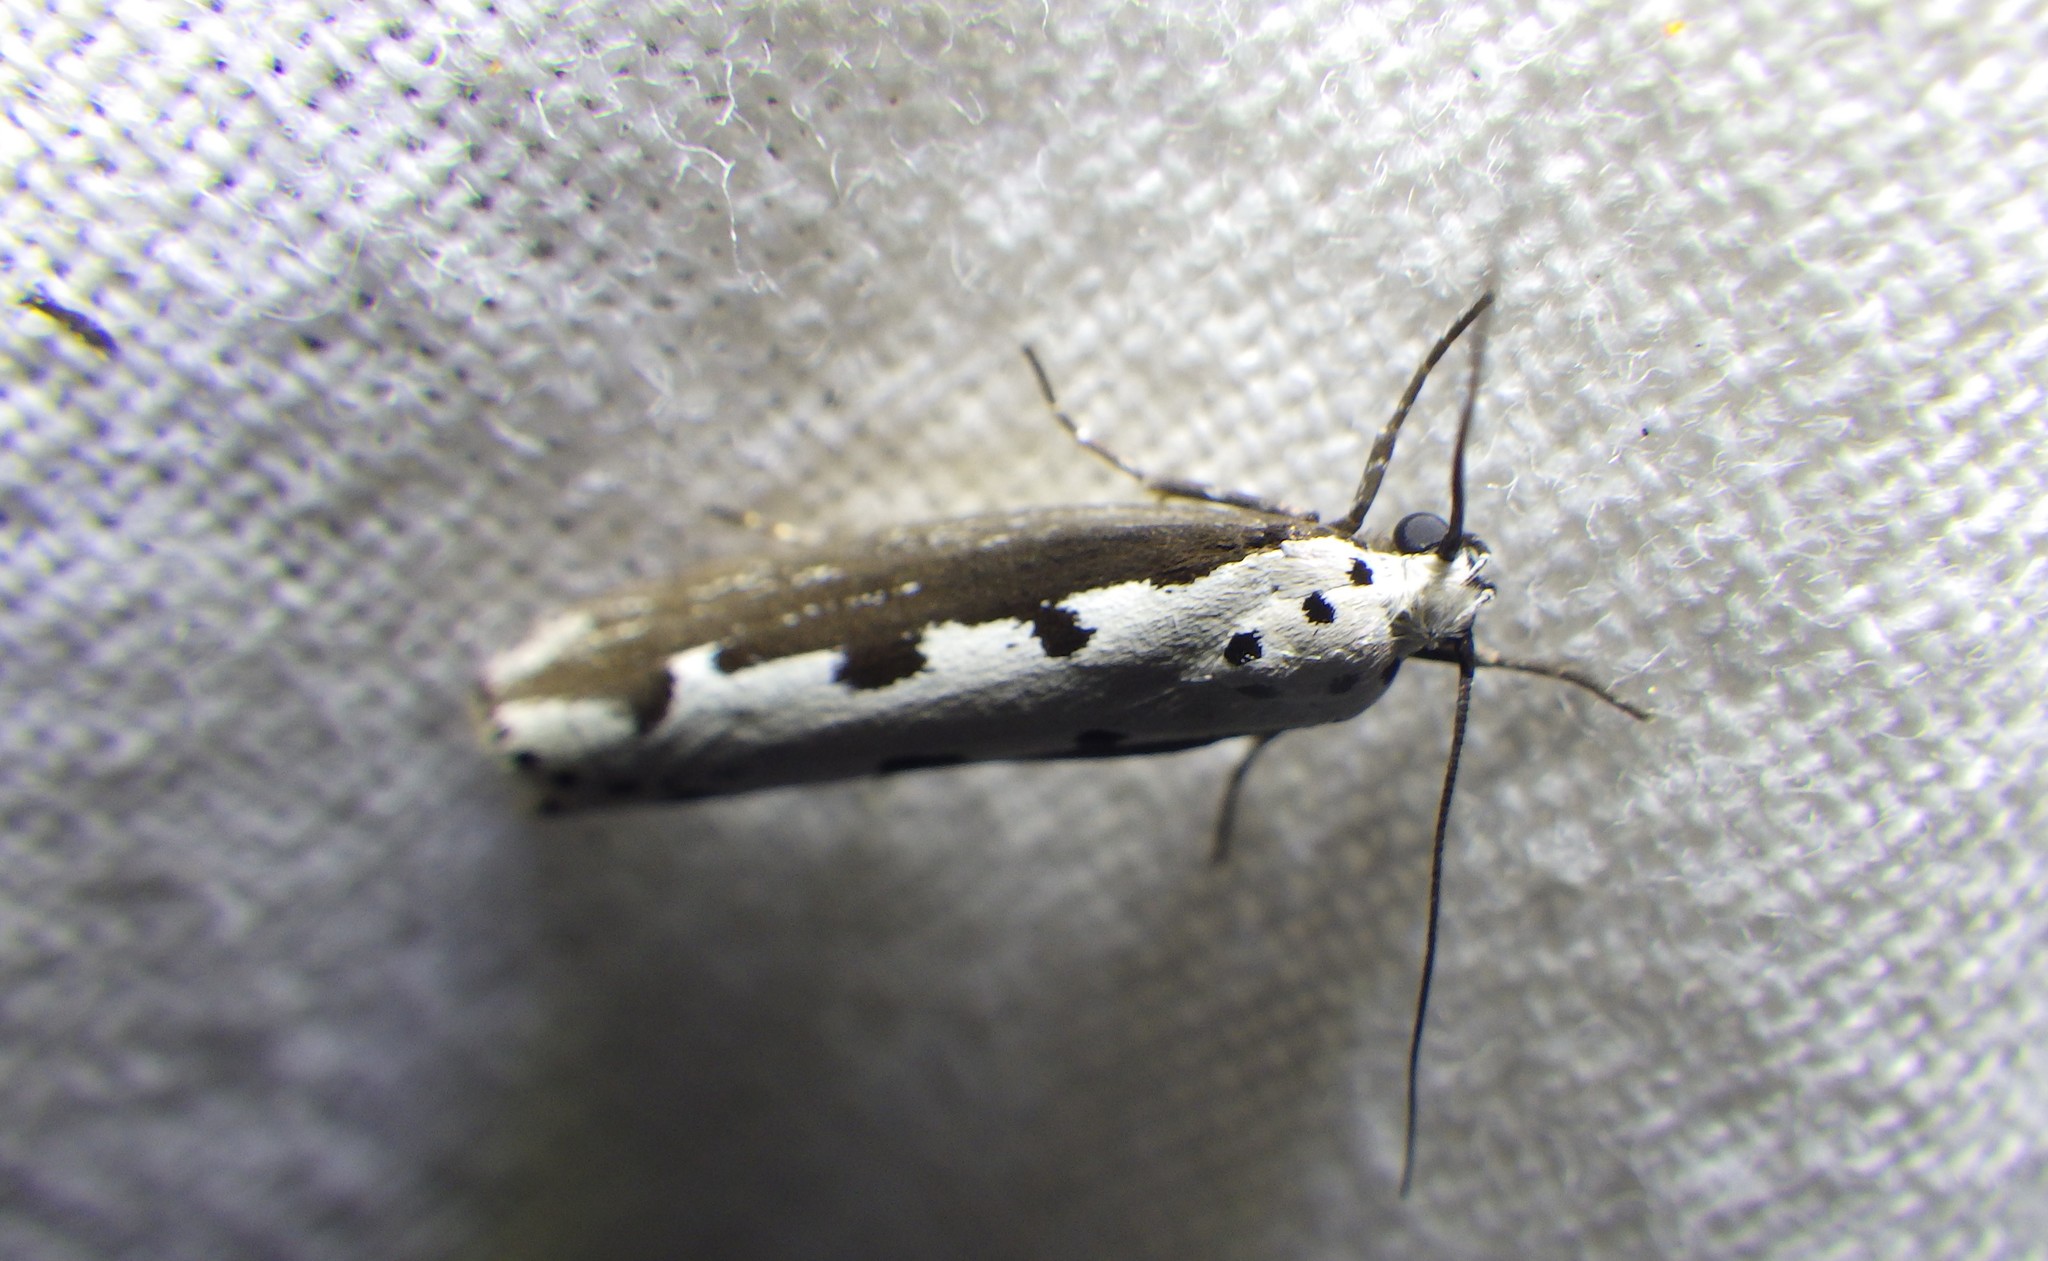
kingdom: Animalia
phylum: Arthropoda
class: Insecta
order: Lepidoptera
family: Ethmiidae
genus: Ethmia
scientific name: Ethmia bipunctella
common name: Bordered ermel
